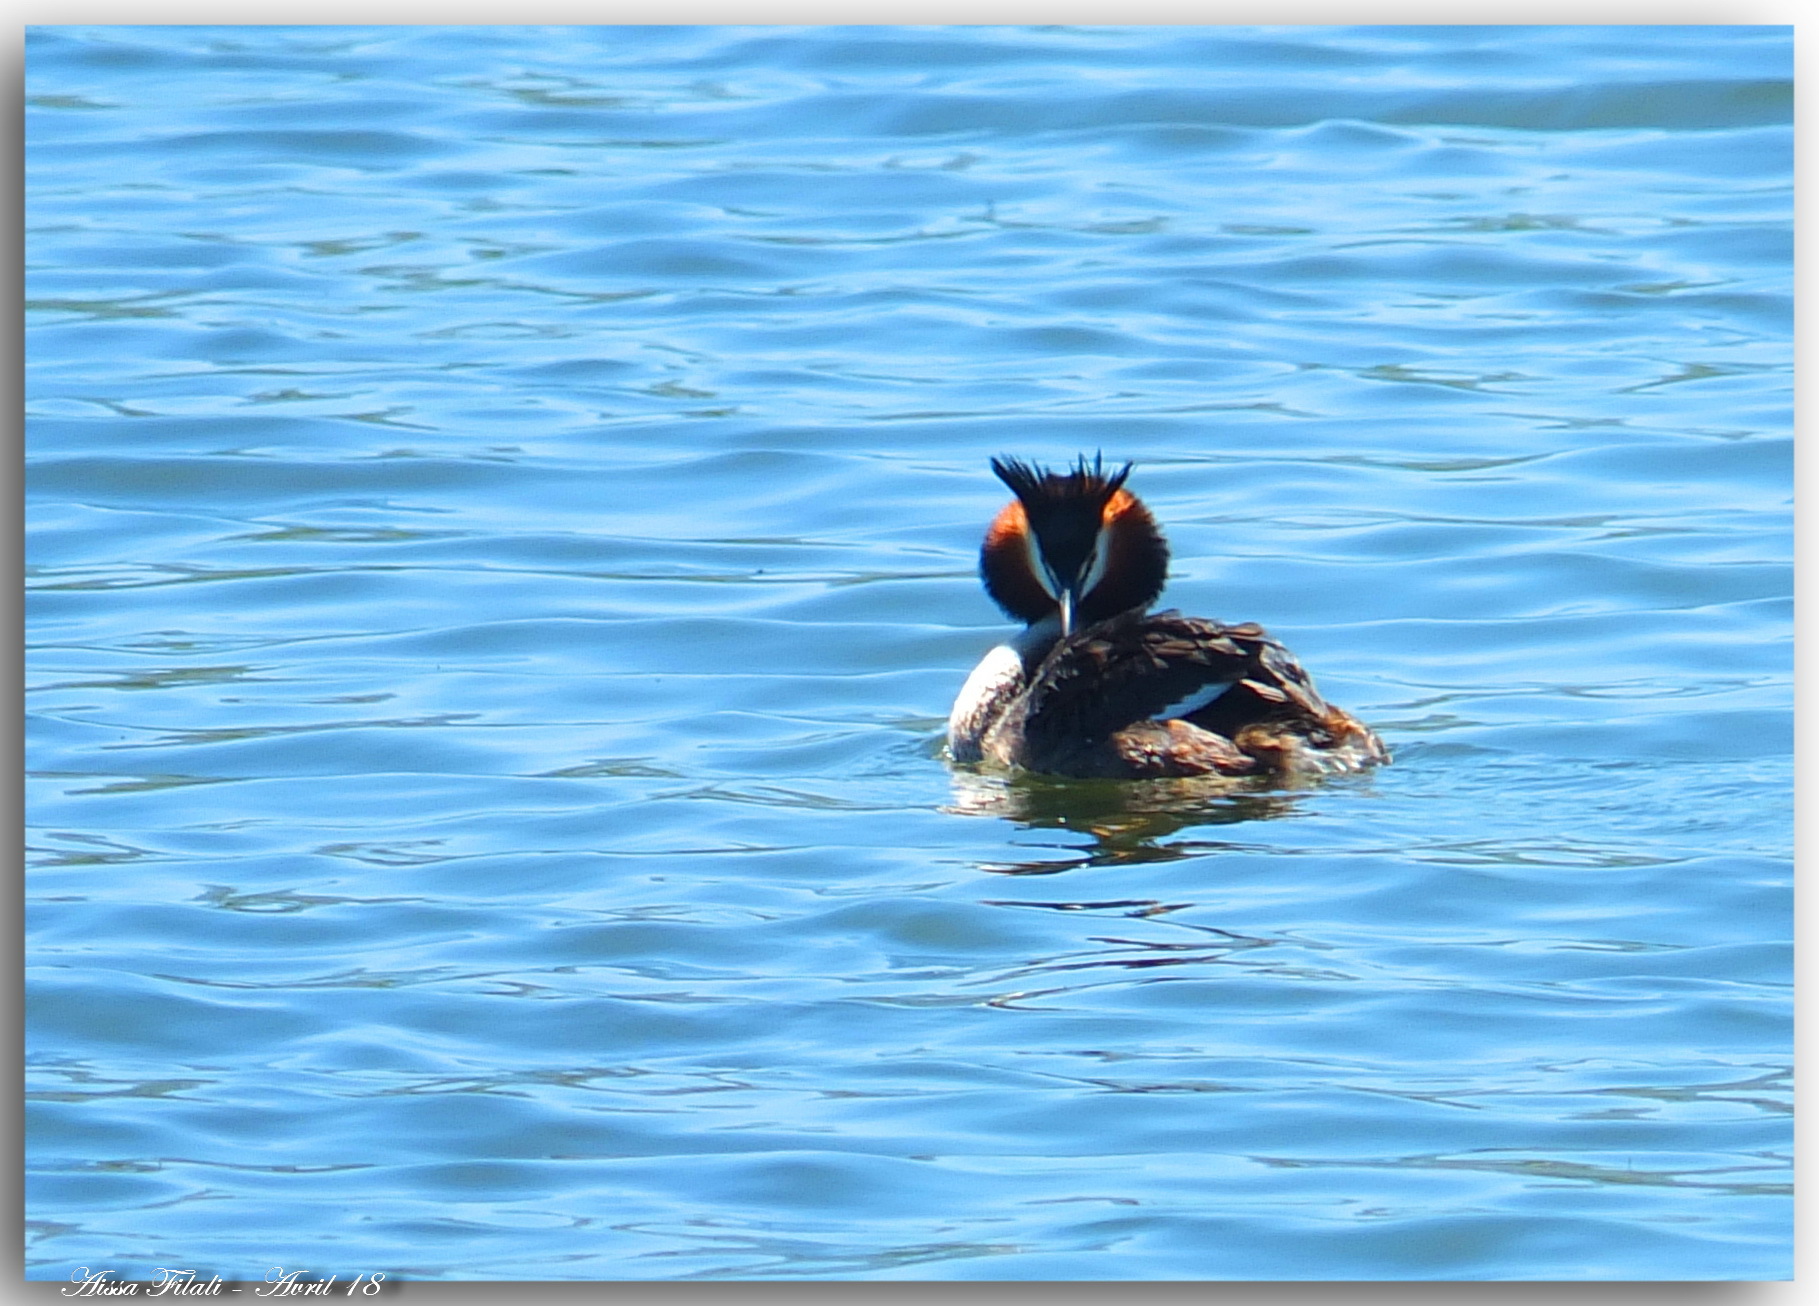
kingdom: Animalia
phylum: Chordata
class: Aves
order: Podicipediformes
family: Podicipedidae
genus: Podiceps
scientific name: Podiceps cristatus
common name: Great crested grebe
